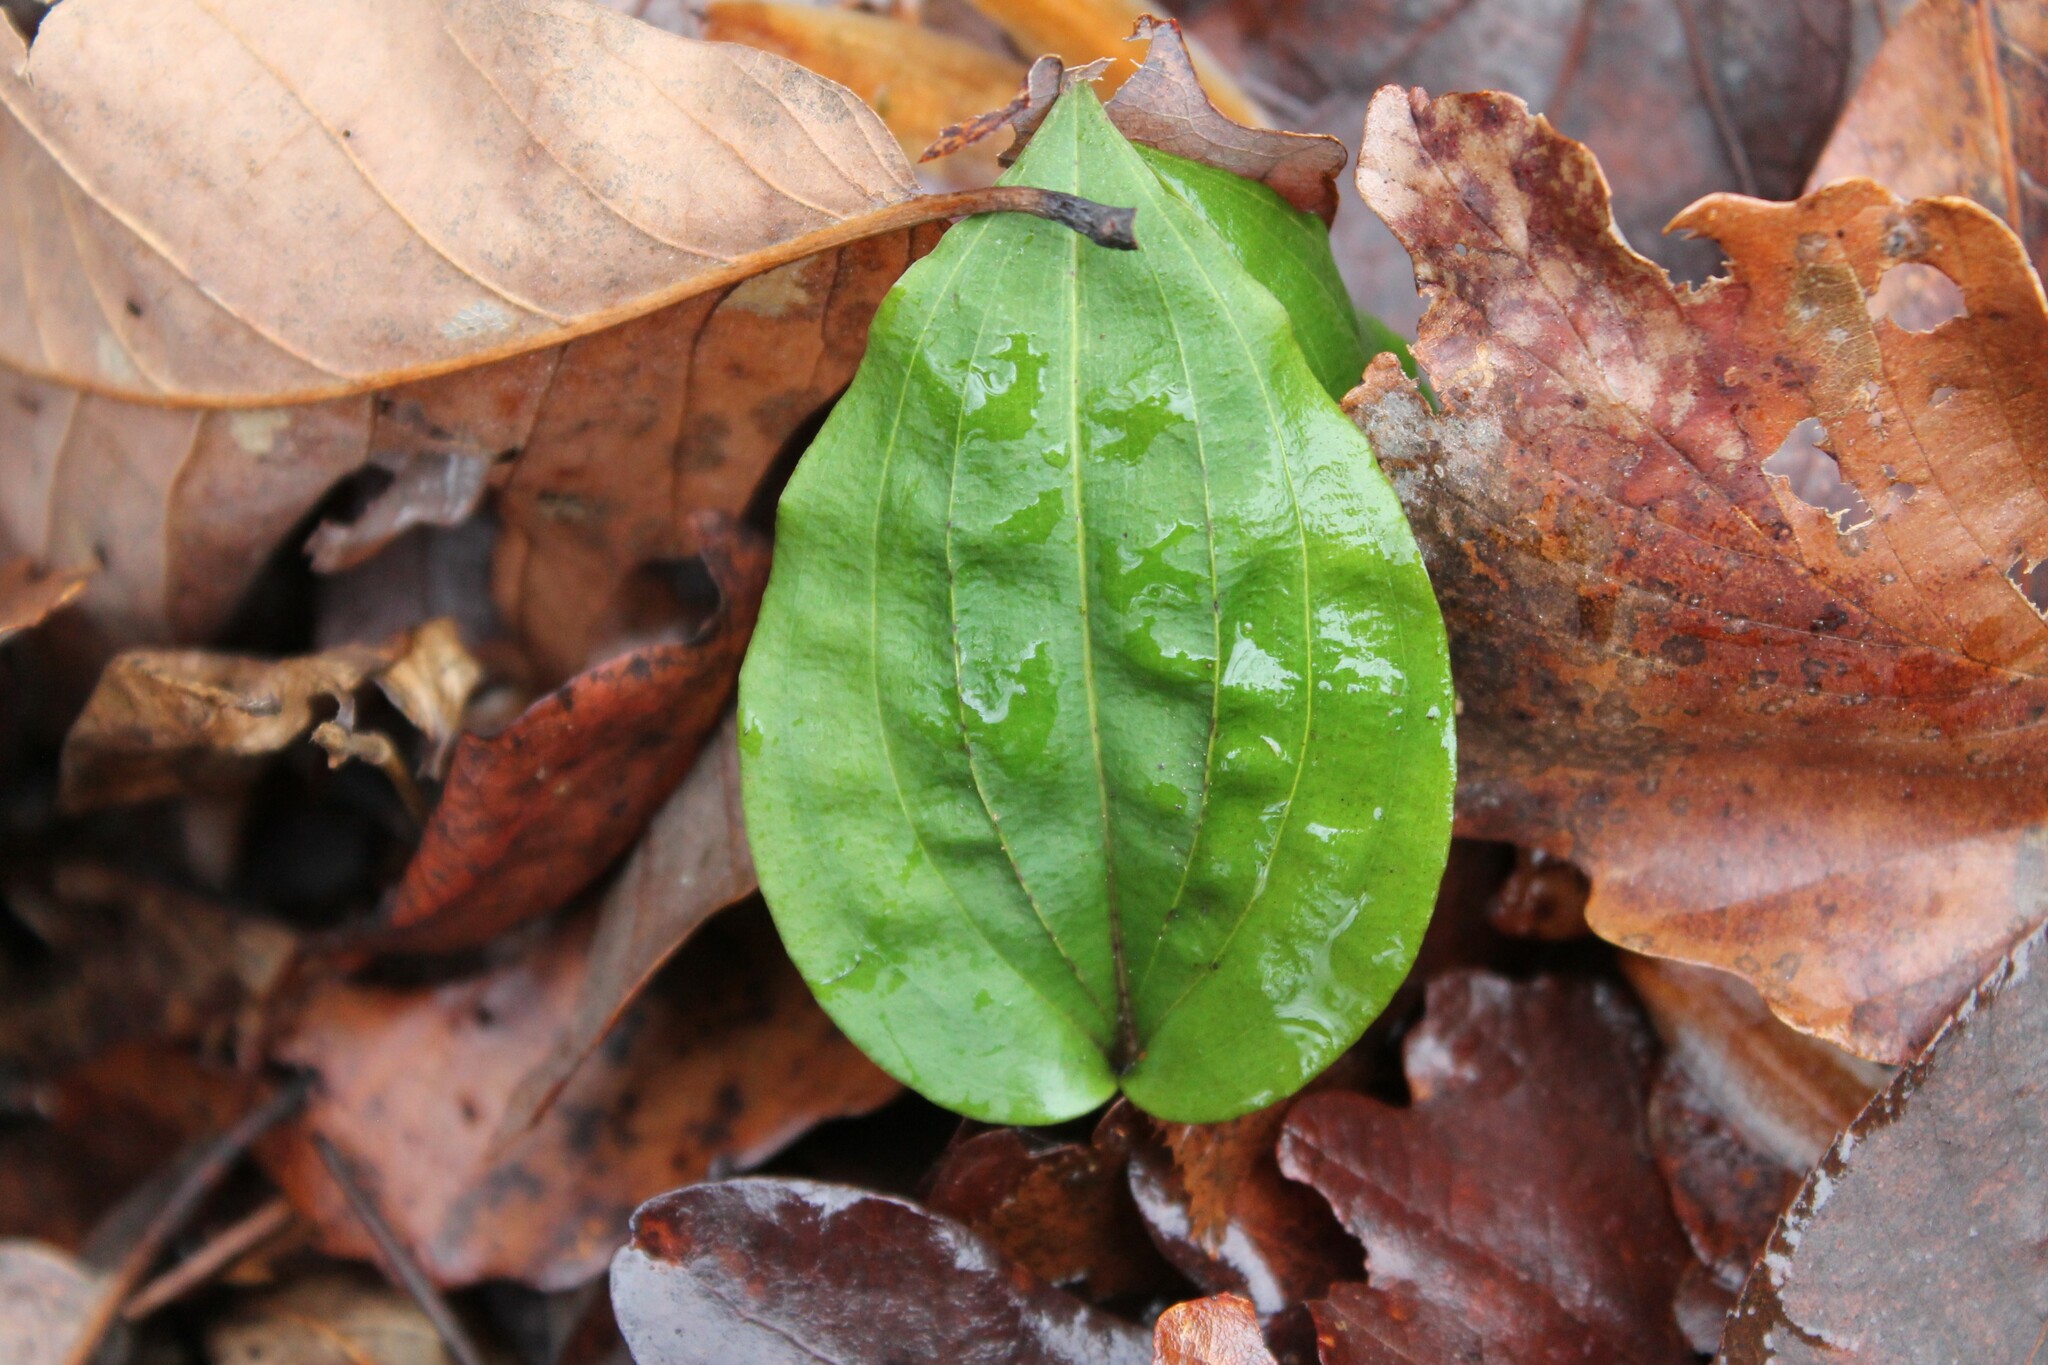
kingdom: Plantae
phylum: Tracheophyta
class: Liliopsida
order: Asparagales
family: Orchidaceae
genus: Tipularia
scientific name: Tipularia discolor
